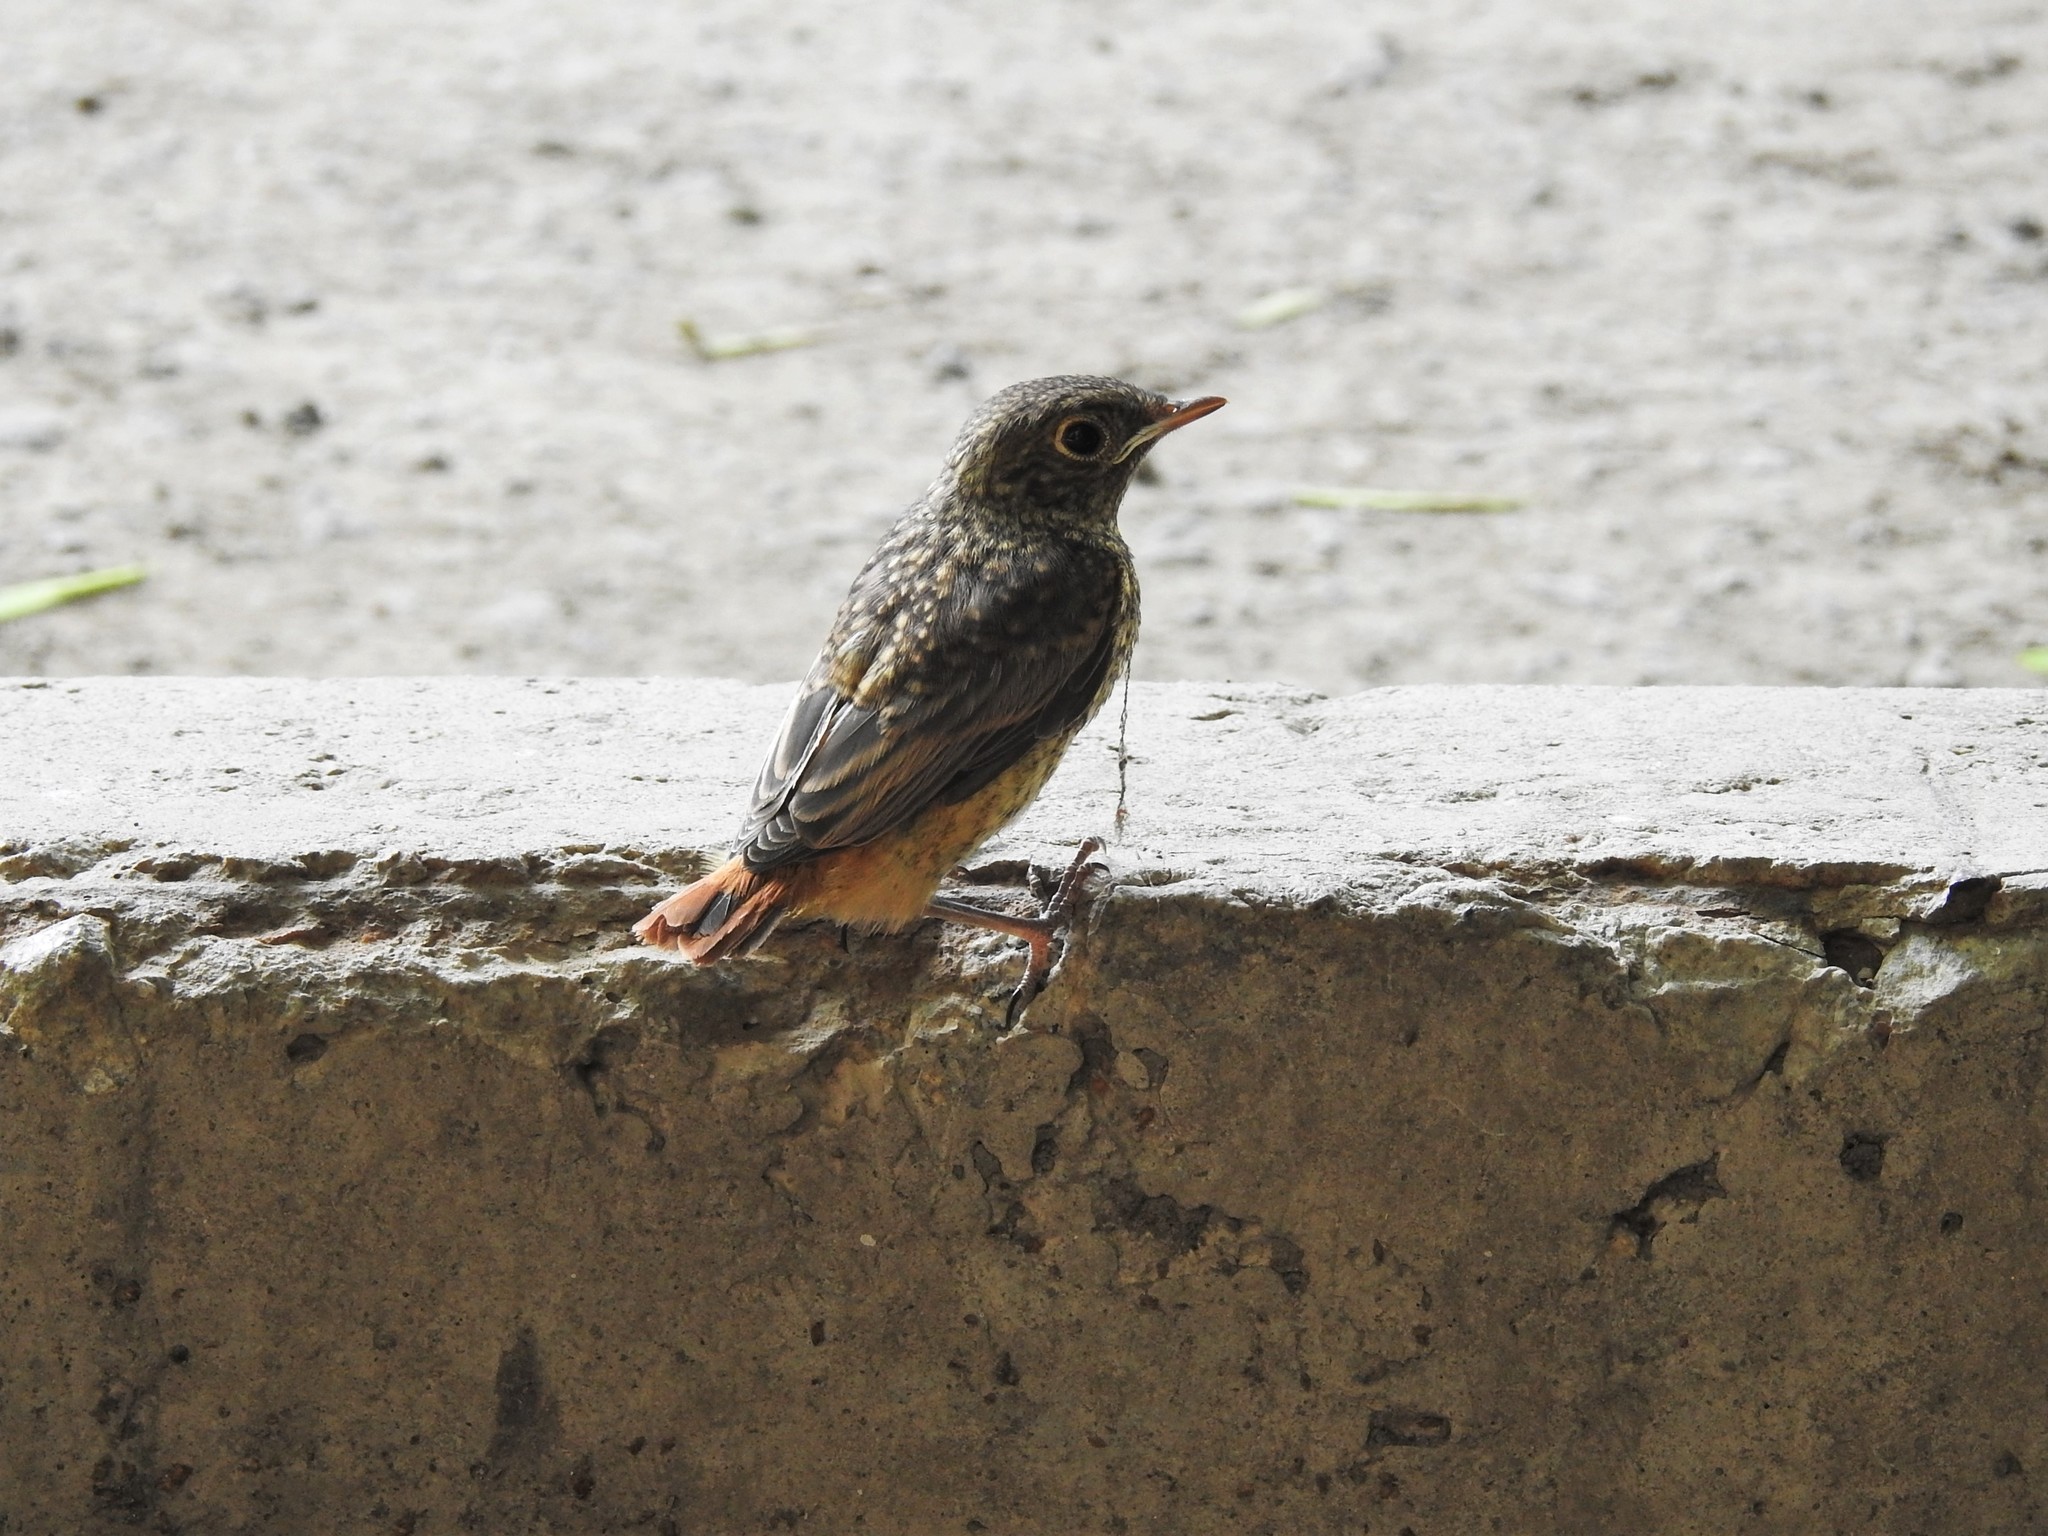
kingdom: Animalia
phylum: Chordata
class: Aves
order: Passeriformes
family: Muscicapidae
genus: Phoenicurus
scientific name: Phoenicurus phoenicurus
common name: Common redstart
